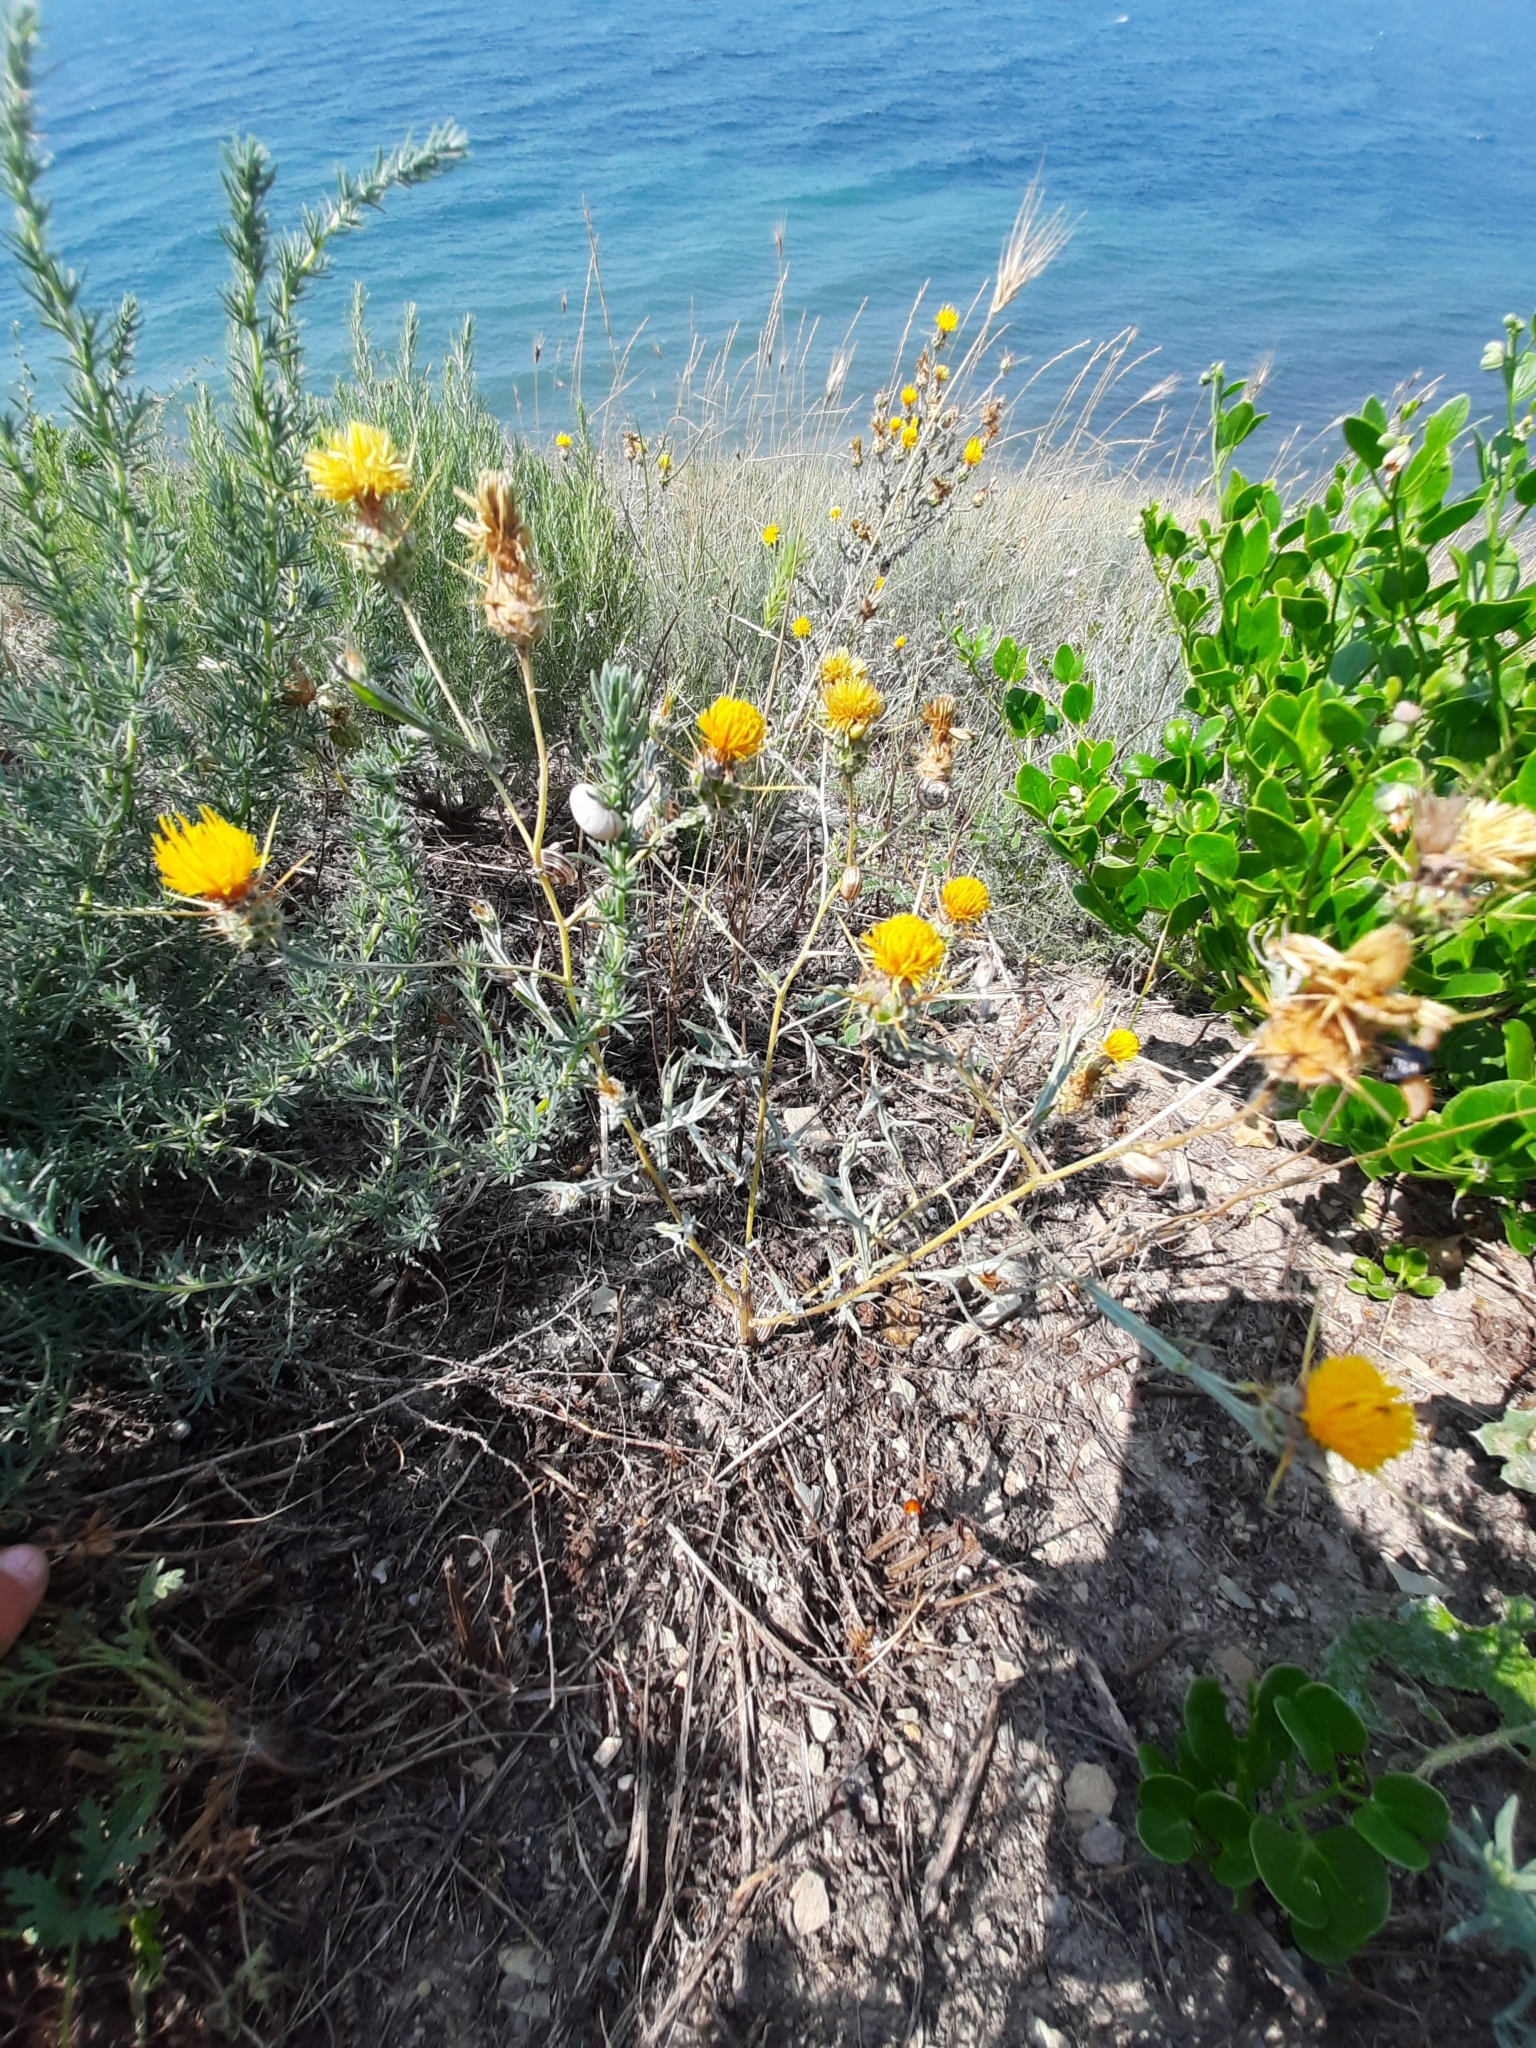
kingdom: Plantae
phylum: Tracheophyta
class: Magnoliopsida
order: Asterales
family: Asteraceae
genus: Centaurea
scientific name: Centaurea solstitialis
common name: Yellow star-thistle
